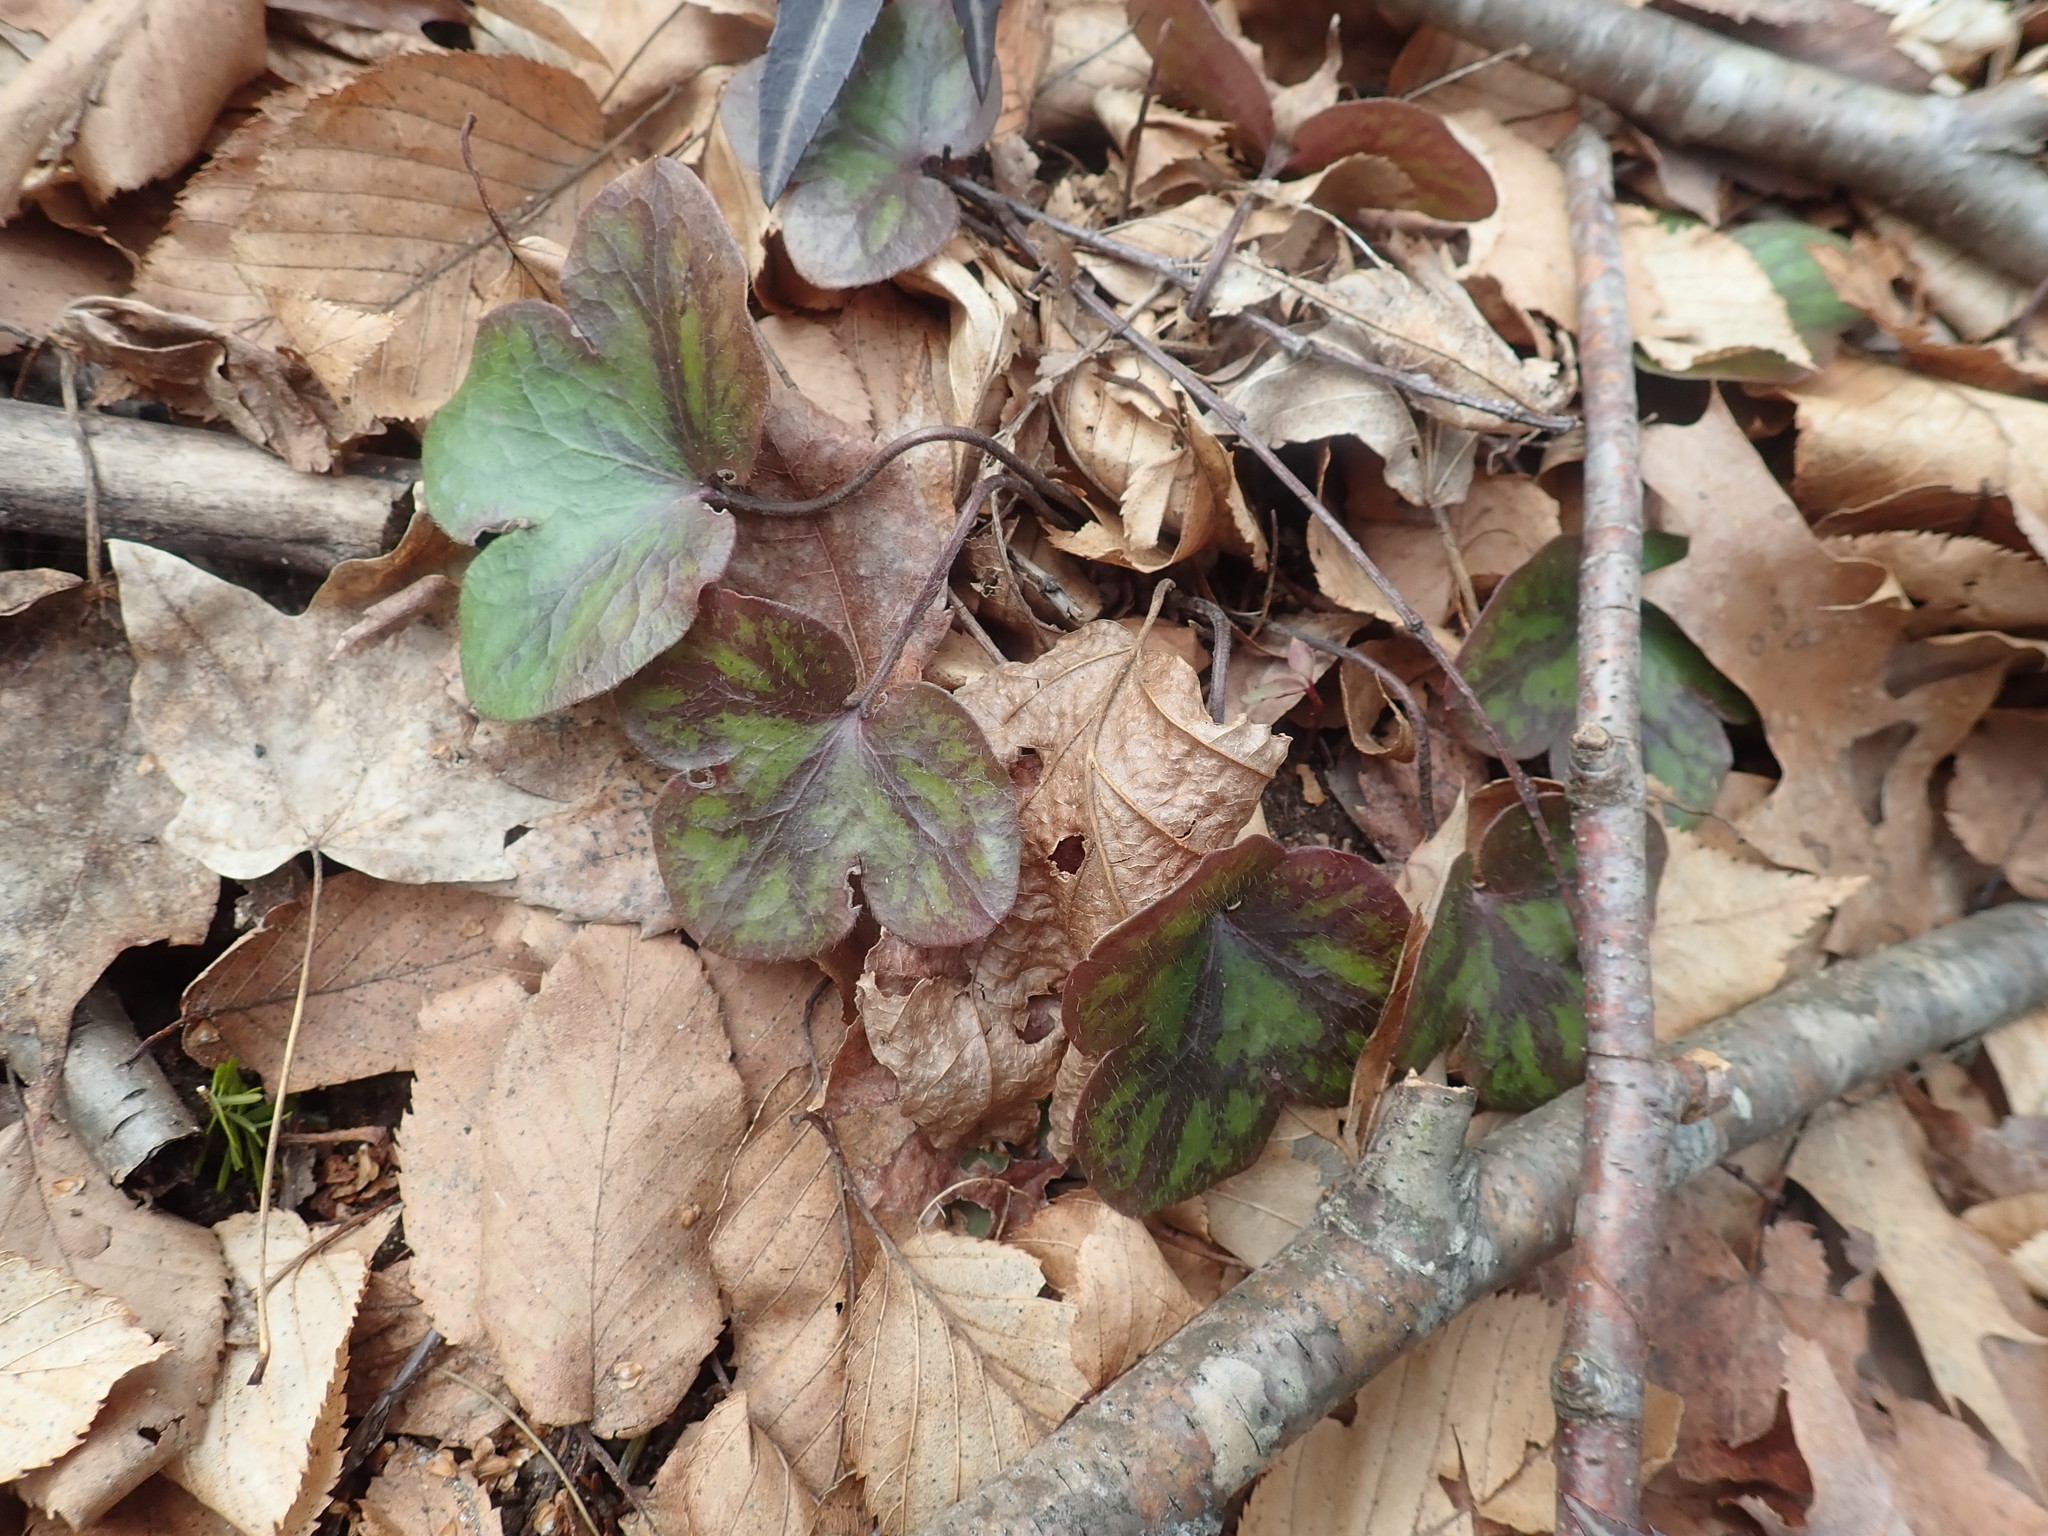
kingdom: Plantae
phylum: Tracheophyta
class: Magnoliopsida
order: Ranunculales
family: Ranunculaceae
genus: Hepatica
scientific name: Hepatica americana
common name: American hepatica
